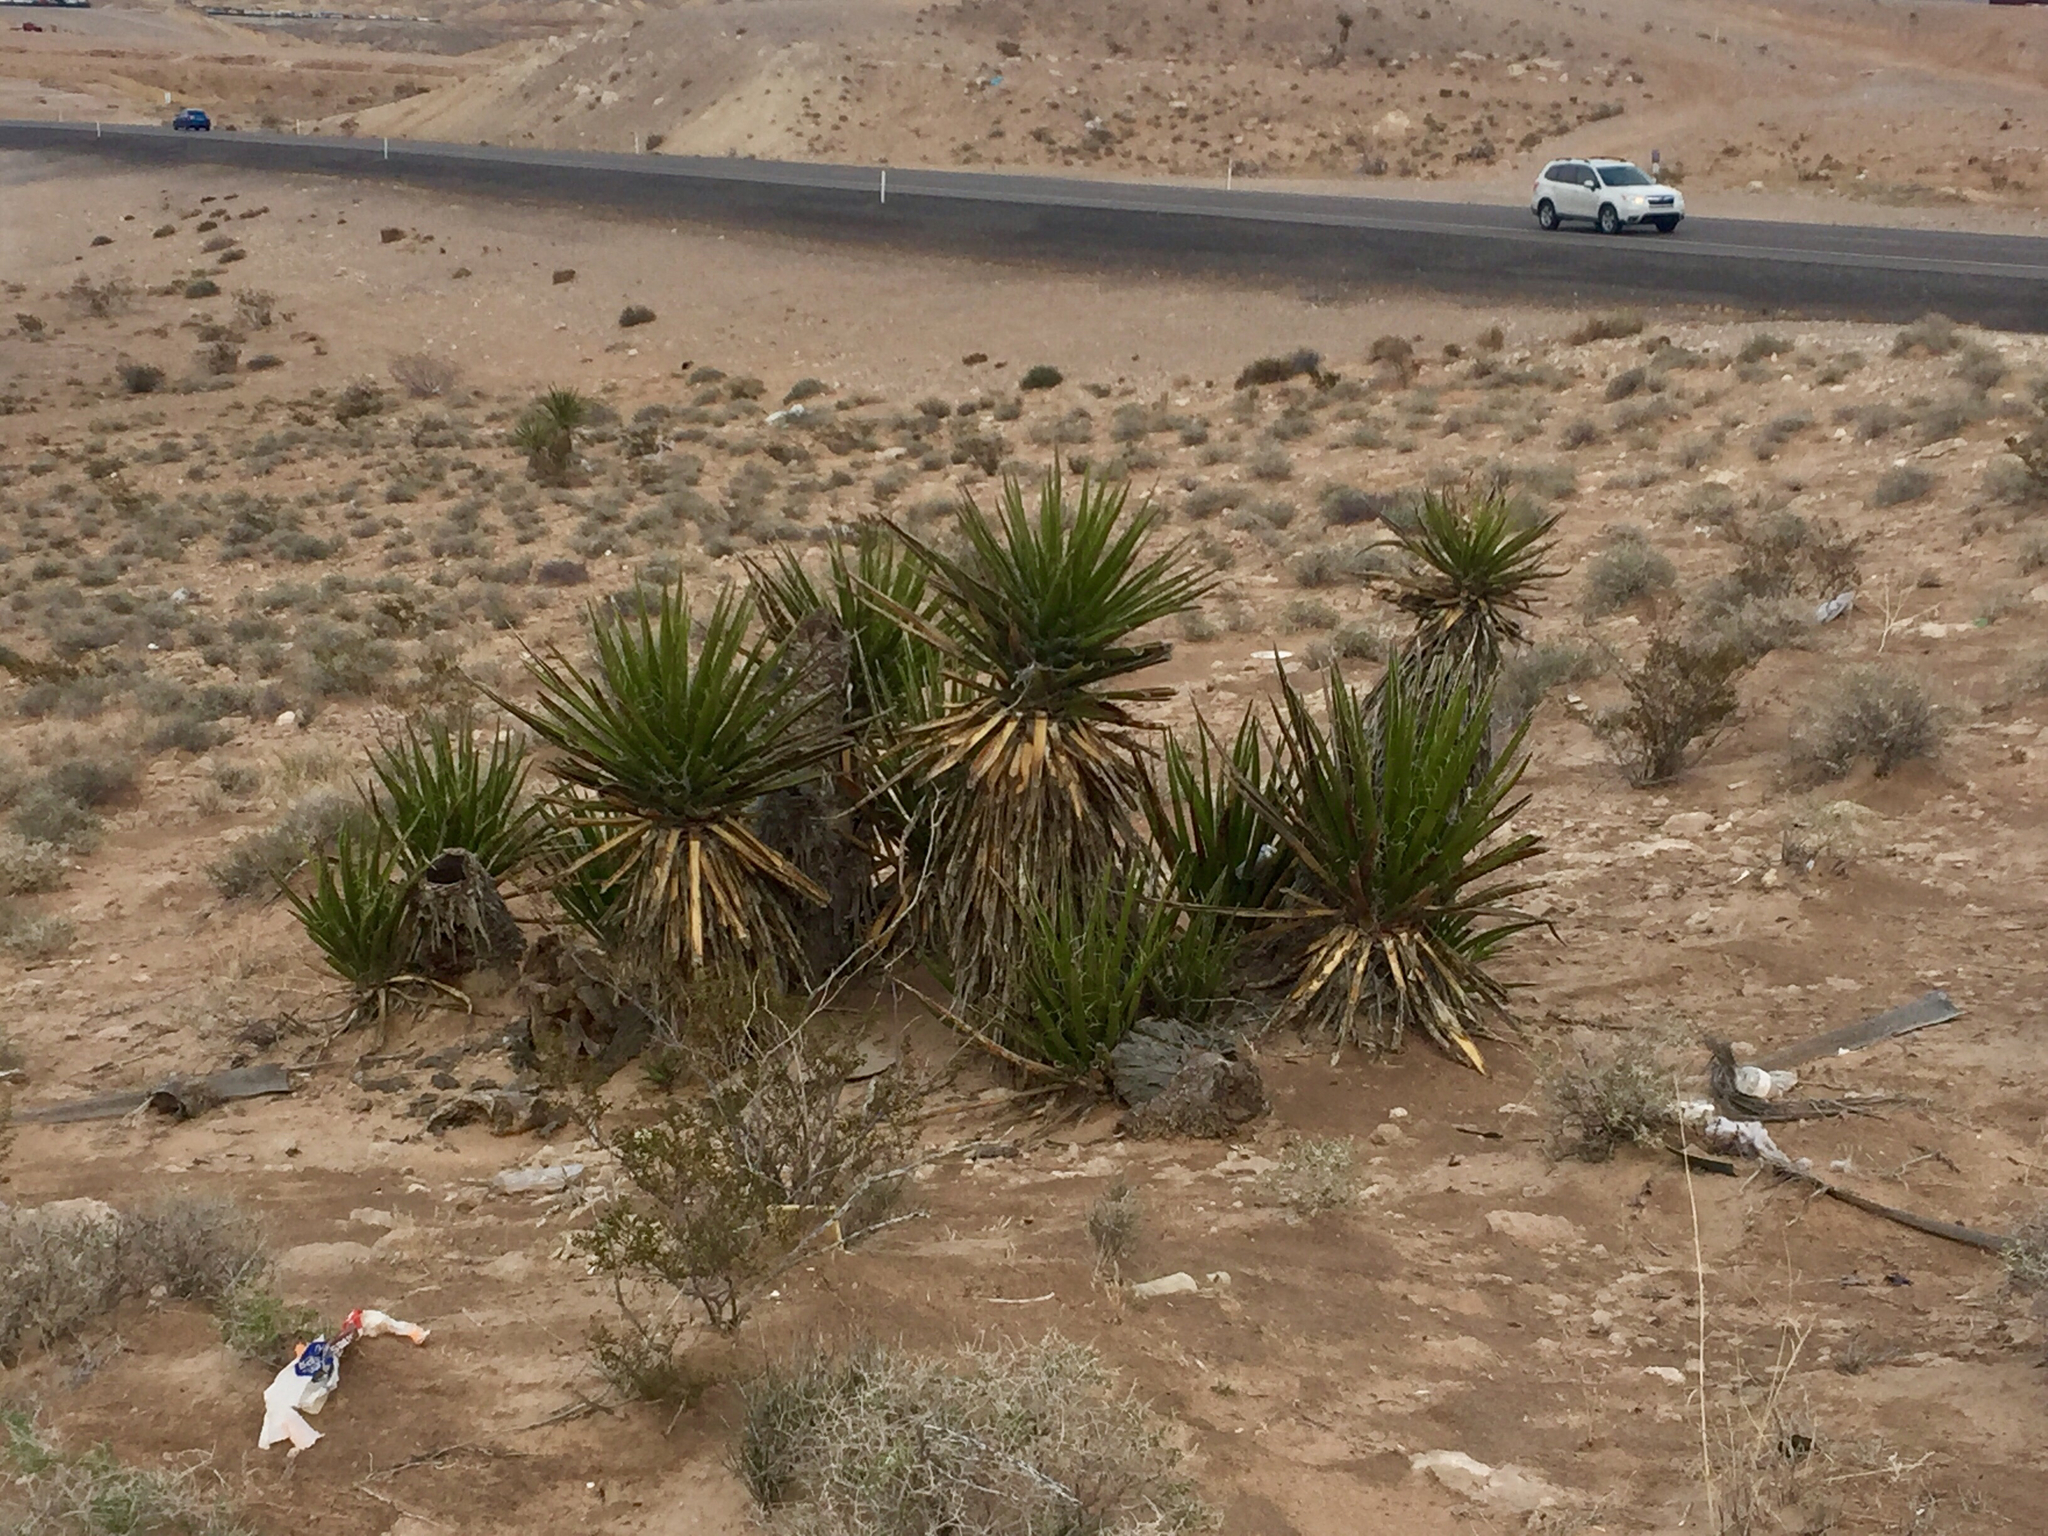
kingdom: Plantae
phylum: Tracheophyta
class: Liliopsida
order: Asparagales
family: Asparagaceae
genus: Yucca
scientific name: Yucca schidigera
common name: Mojave yucca
